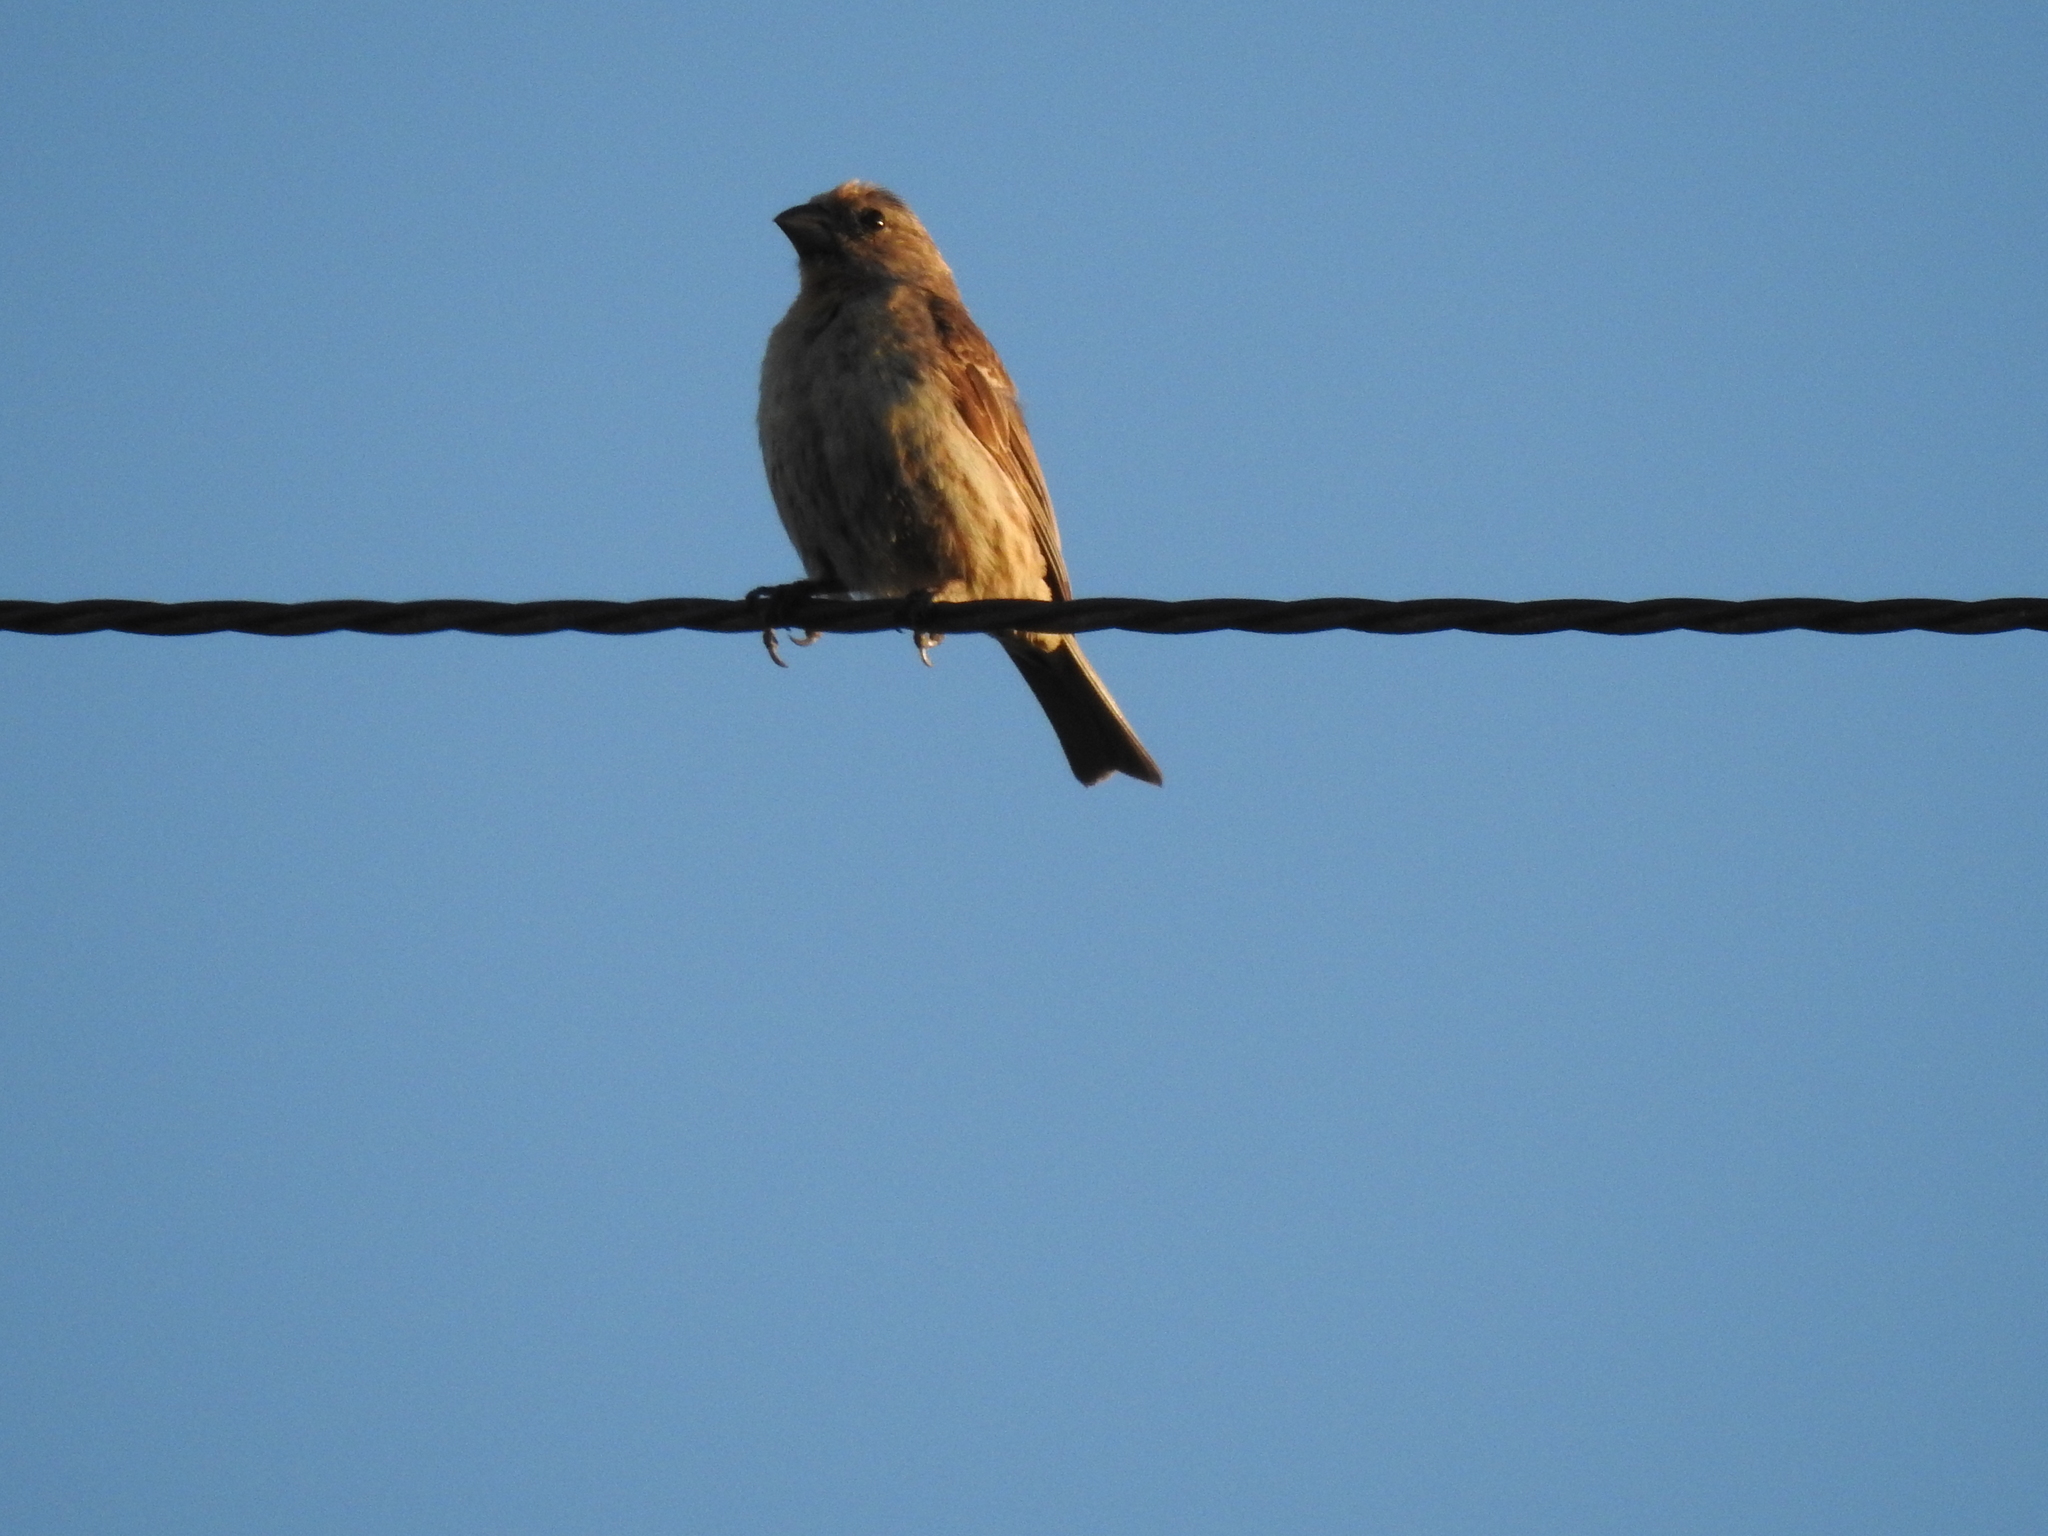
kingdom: Animalia
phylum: Chordata
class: Aves
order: Passeriformes
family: Fringillidae
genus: Haemorhous
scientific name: Haemorhous mexicanus
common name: House finch
